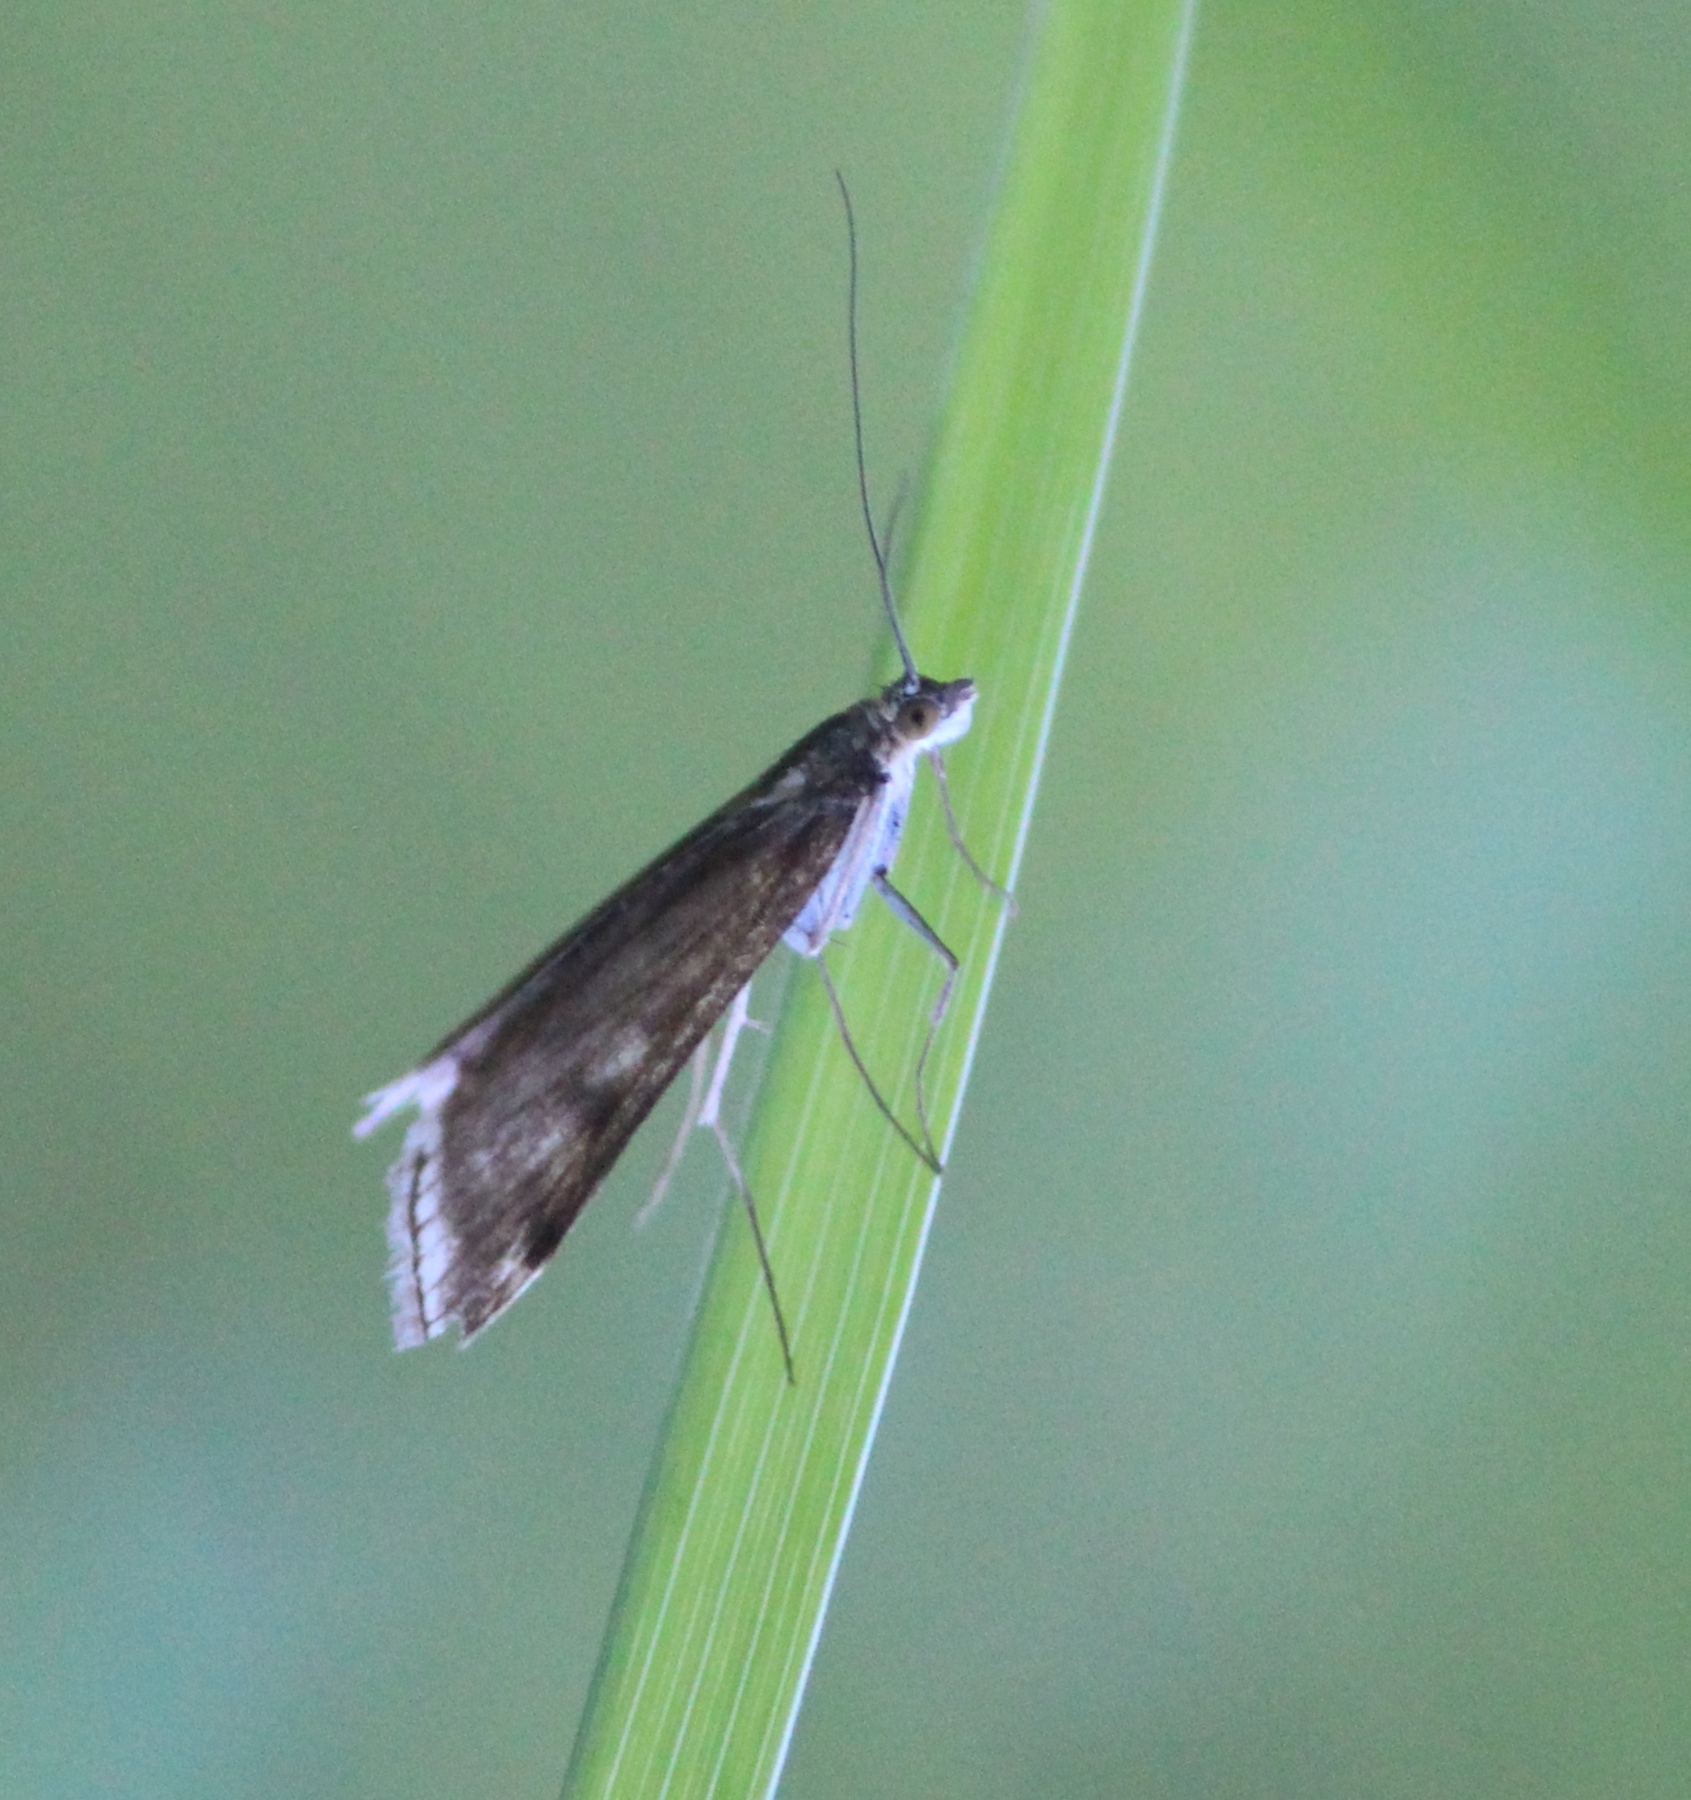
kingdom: Animalia
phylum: Arthropoda
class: Insecta
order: Lepidoptera
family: Crambidae
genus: Loxostege
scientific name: Loxostege sticticalis
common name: Crambid moth
